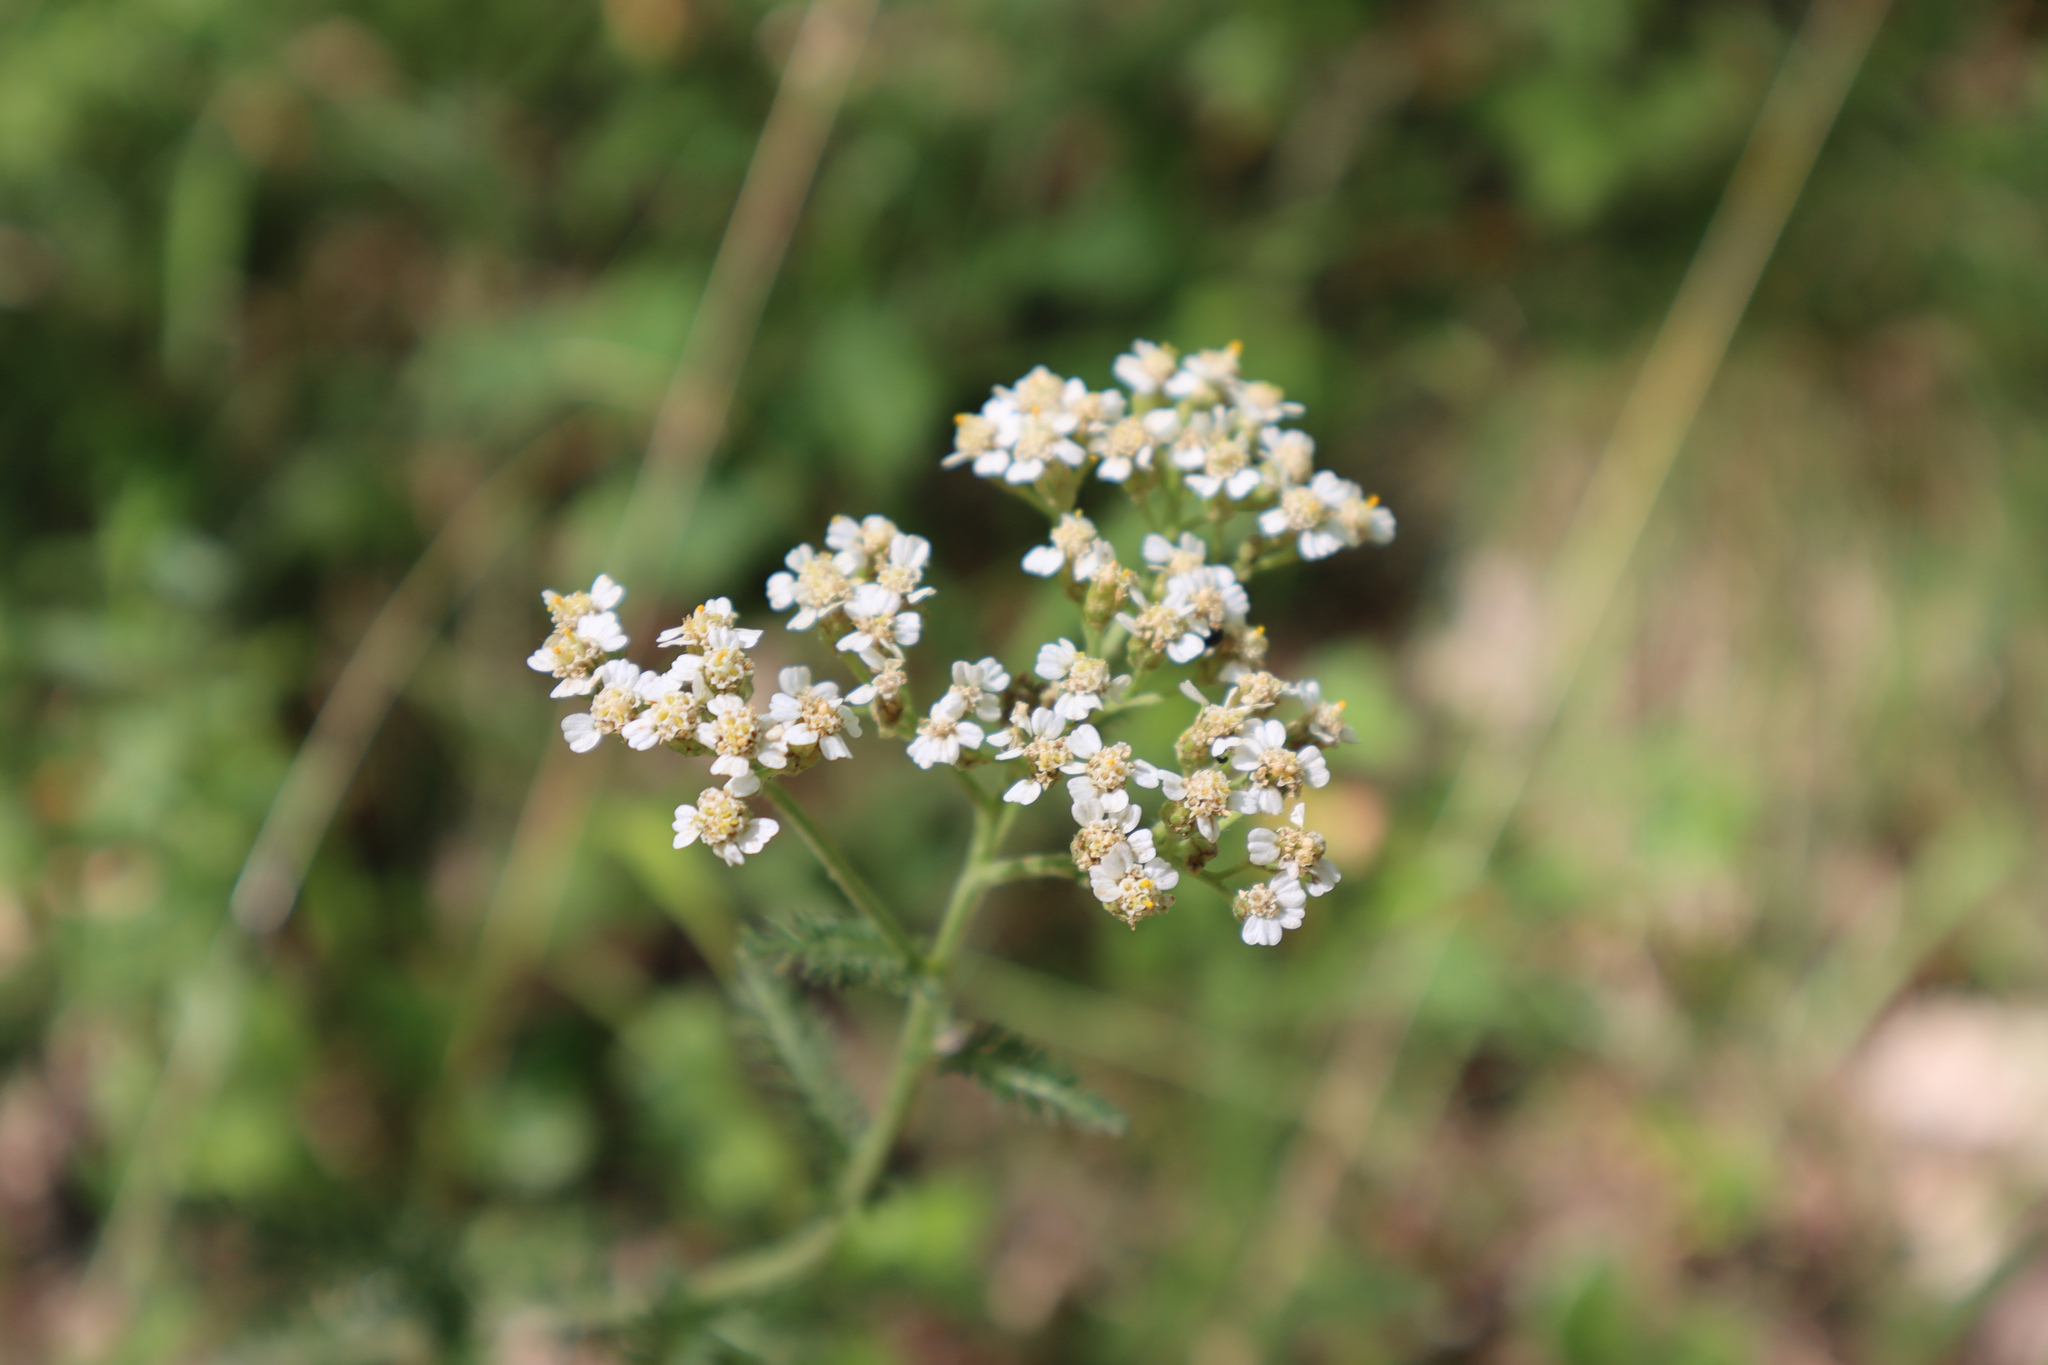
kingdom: Plantae
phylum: Tracheophyta
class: Magnoliopsida
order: Asterales
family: Asteraceae
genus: Achillea
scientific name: Achillea millefolium
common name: Yarrow
